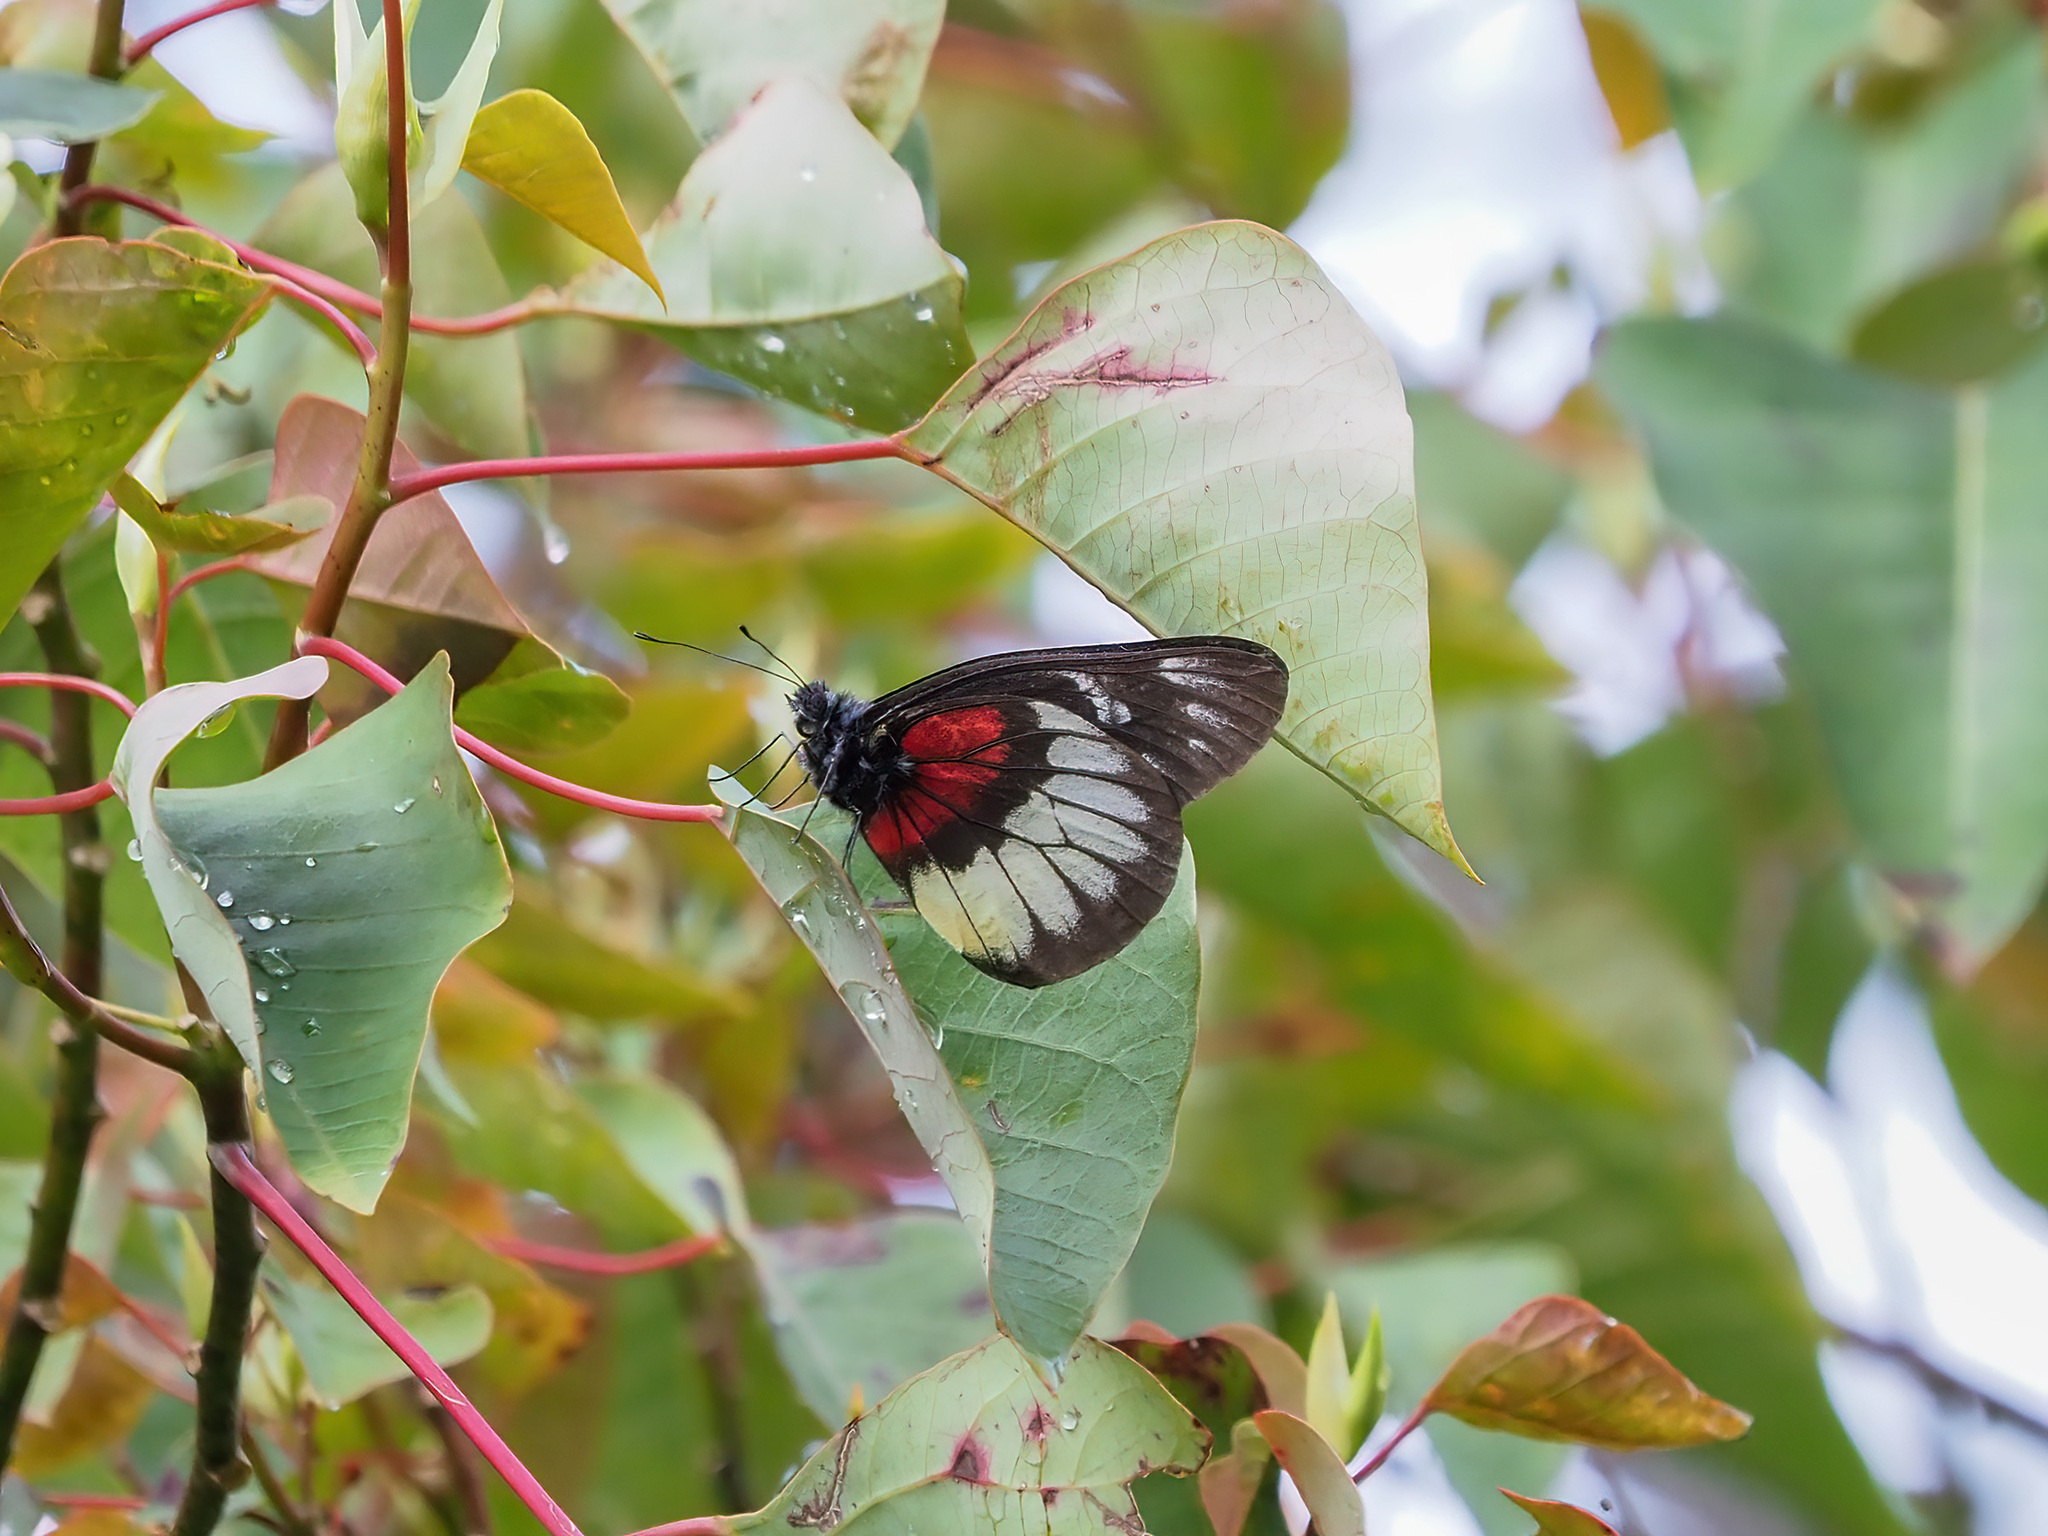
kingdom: Animalia
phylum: Arthropoda
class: Insecta
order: Lepidoptera
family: Pieridae
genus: Delias
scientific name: Delias ninus
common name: Malayan jezebel
